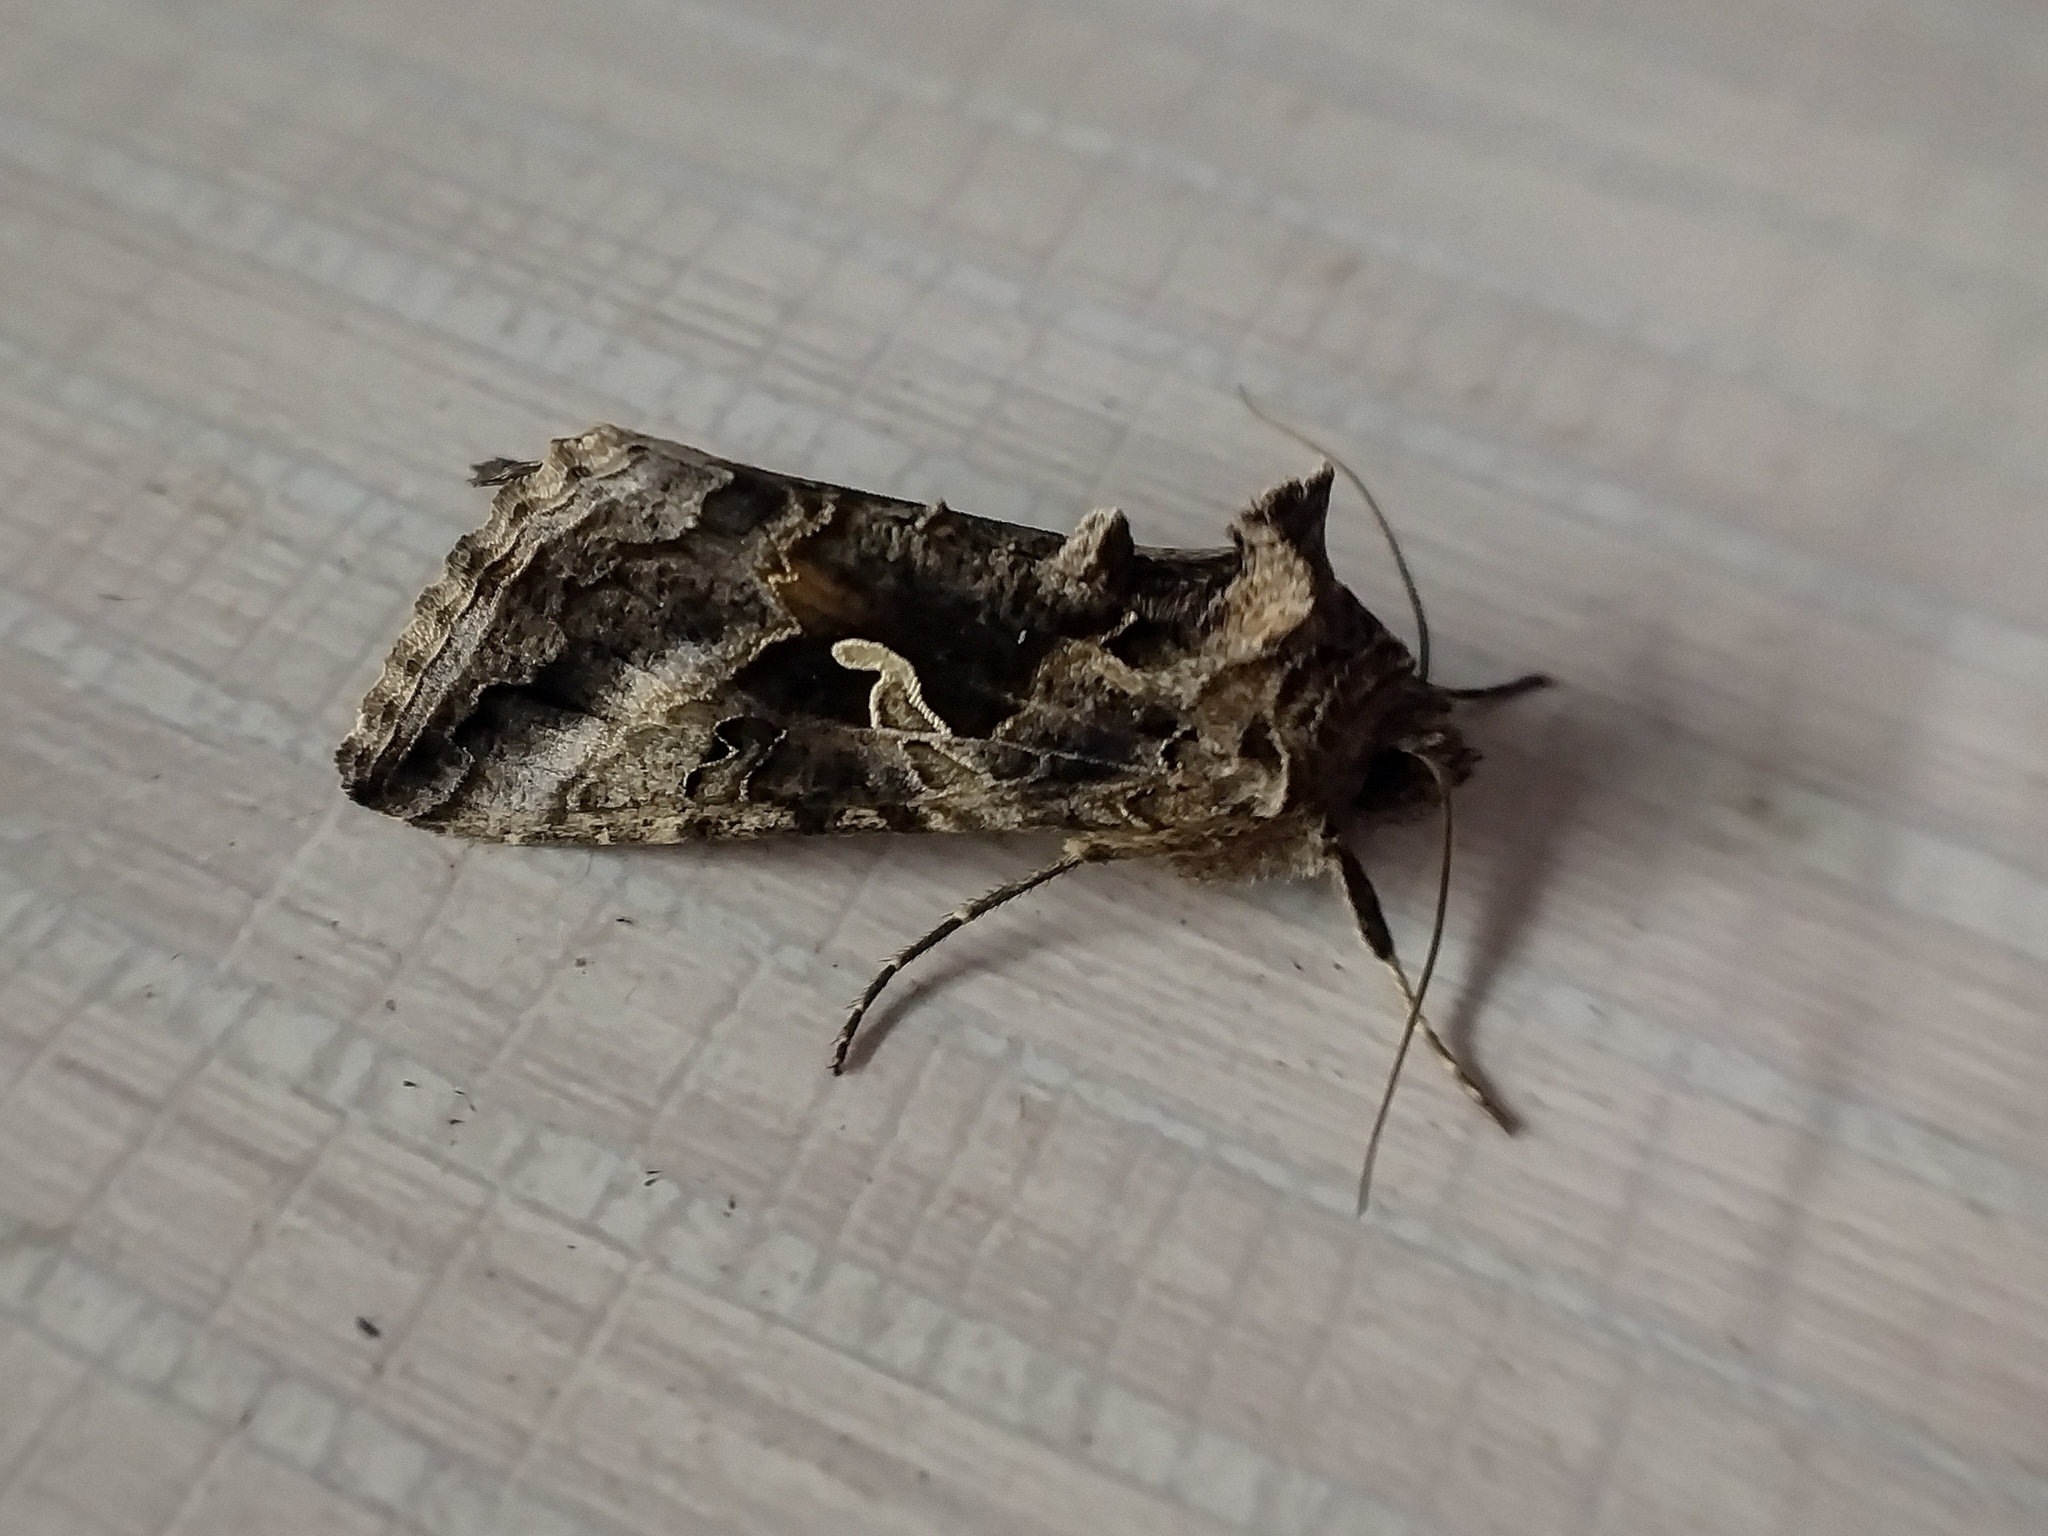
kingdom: Animalia
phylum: Arthropoda
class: Insecta
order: Lepidoptera
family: Noctuidae
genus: Autographa
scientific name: Autographa gamma
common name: Silver y
